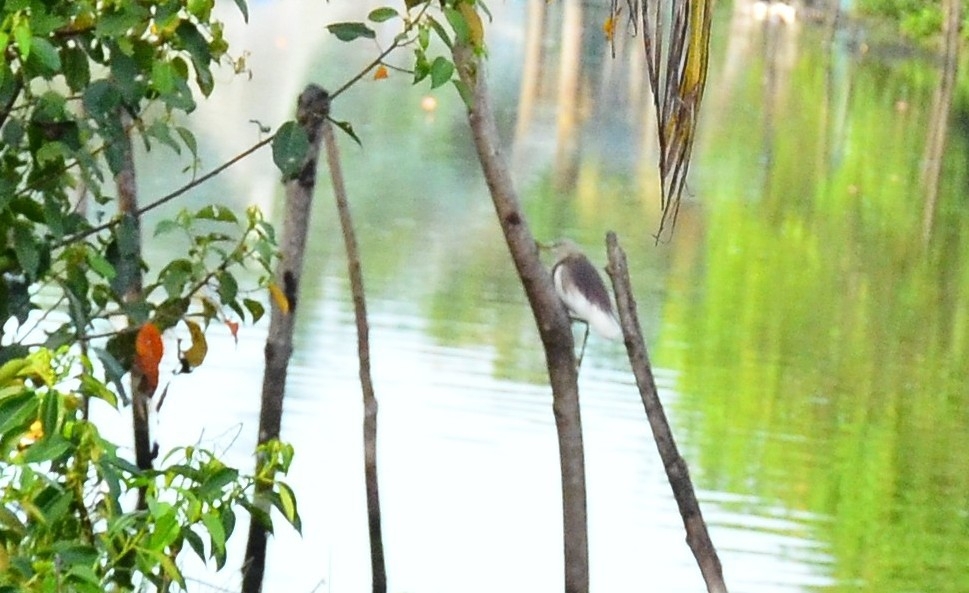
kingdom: Animalia
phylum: Chordata
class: Aves
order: Pelecaniformes
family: Ardeidae
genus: Ardeola
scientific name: Ardeola grayii
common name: Indian pond heron
